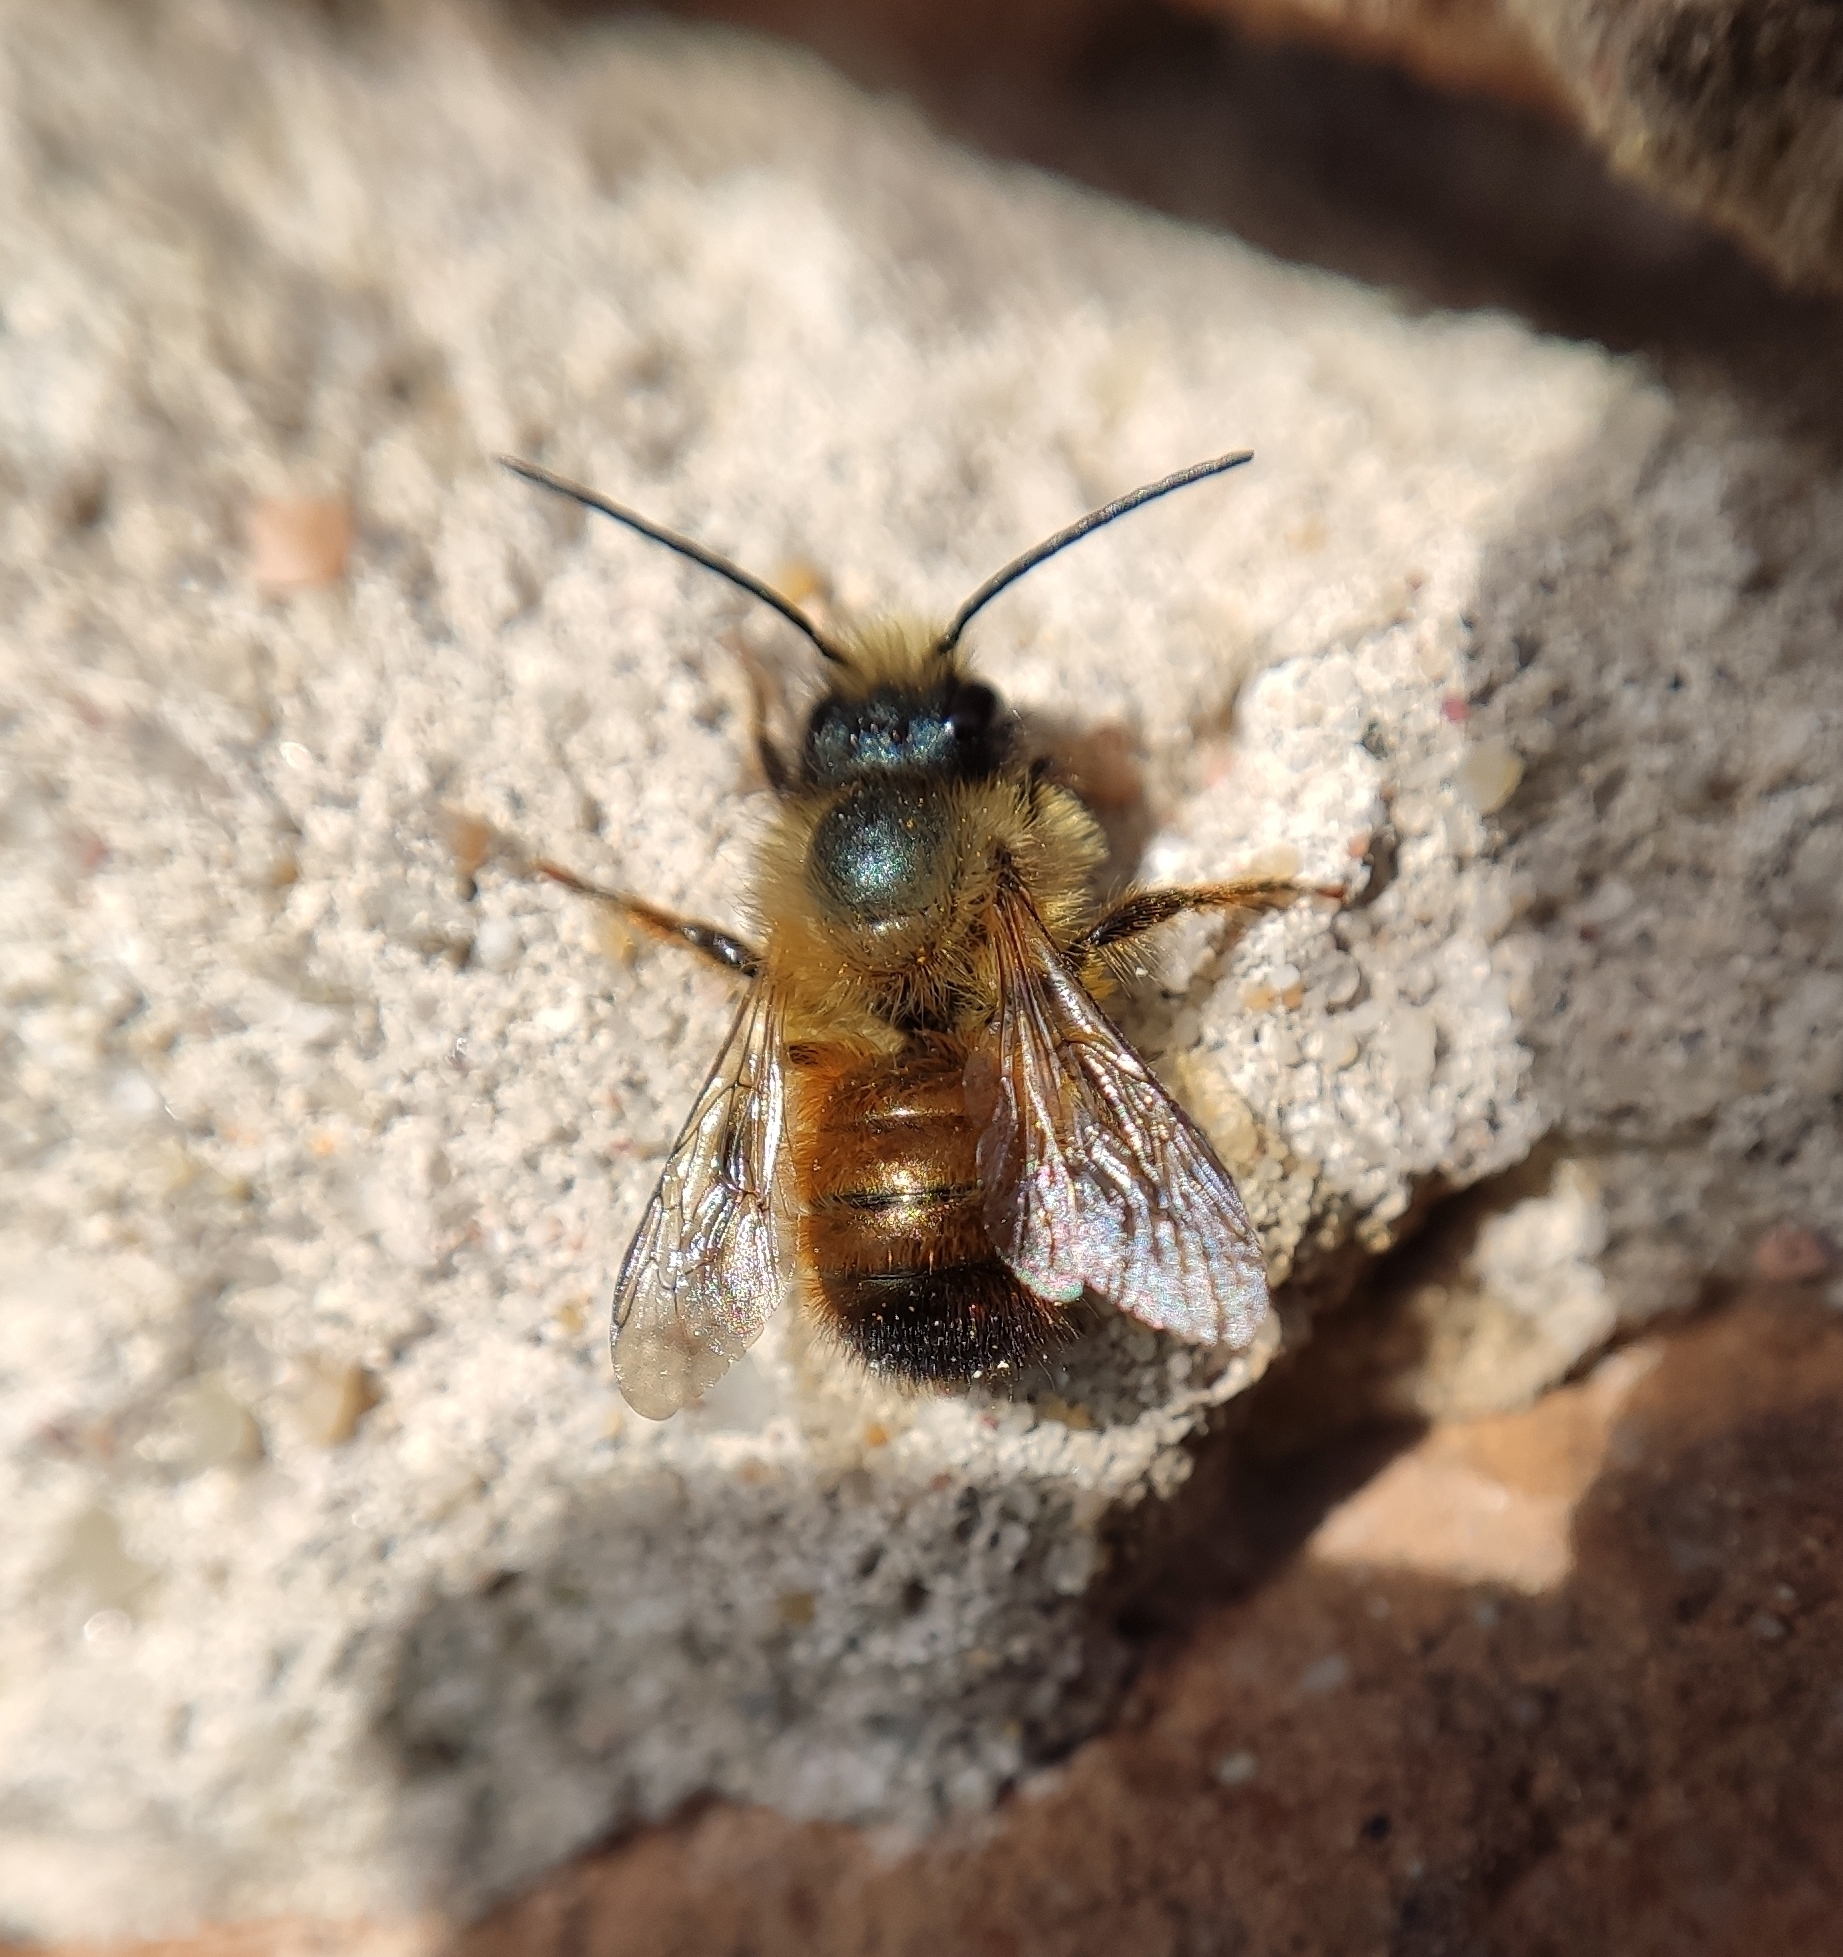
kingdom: Animalia
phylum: Arthropoda
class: Insecta
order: Hymenoptera
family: Megachilidae
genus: Osmia
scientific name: Osmia bicornis
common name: Red mason bee
